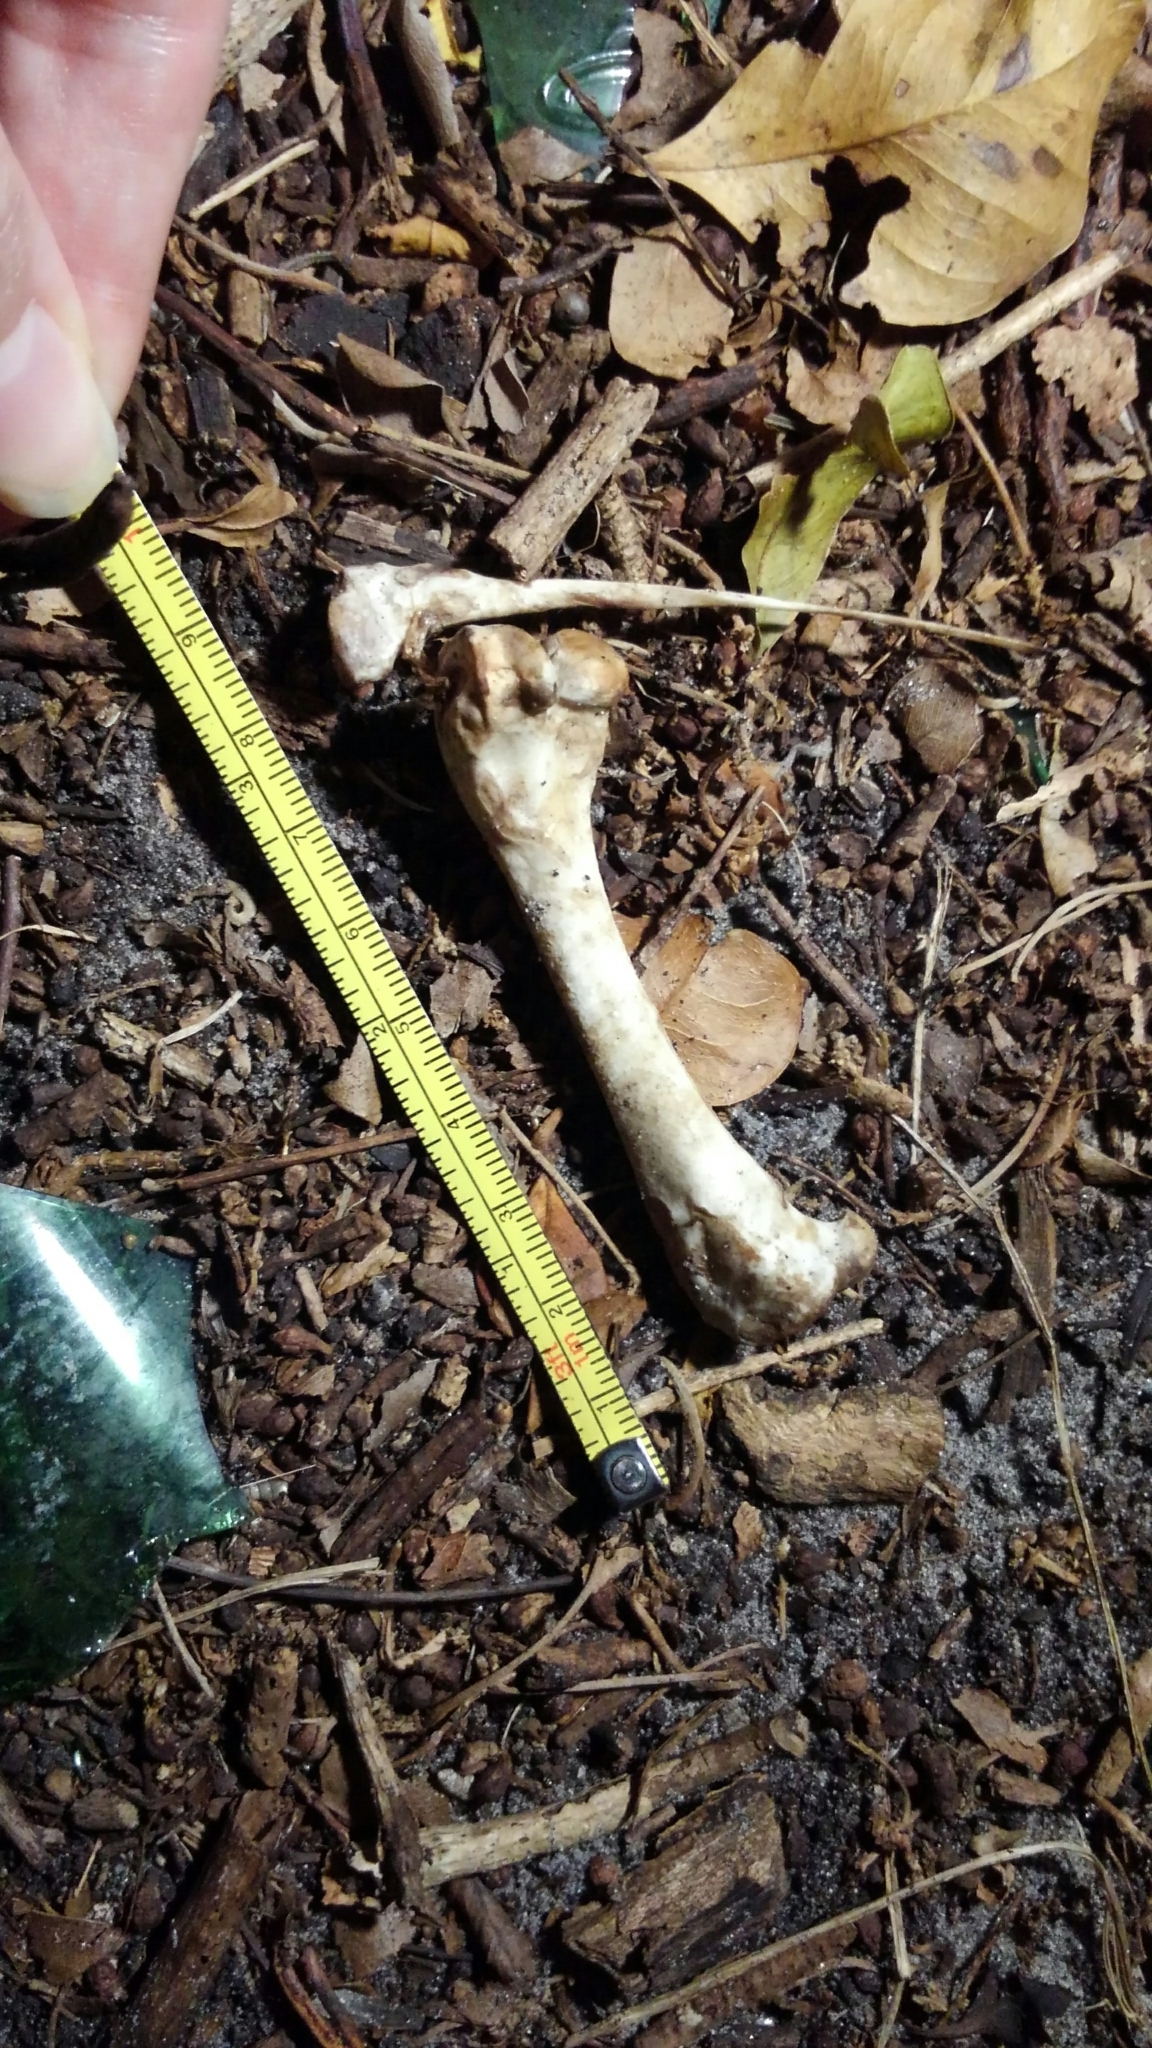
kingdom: Animalia
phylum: Chordata
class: Aves
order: Anseriformes
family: Anatidae
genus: Cairina
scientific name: Cairina moschata
